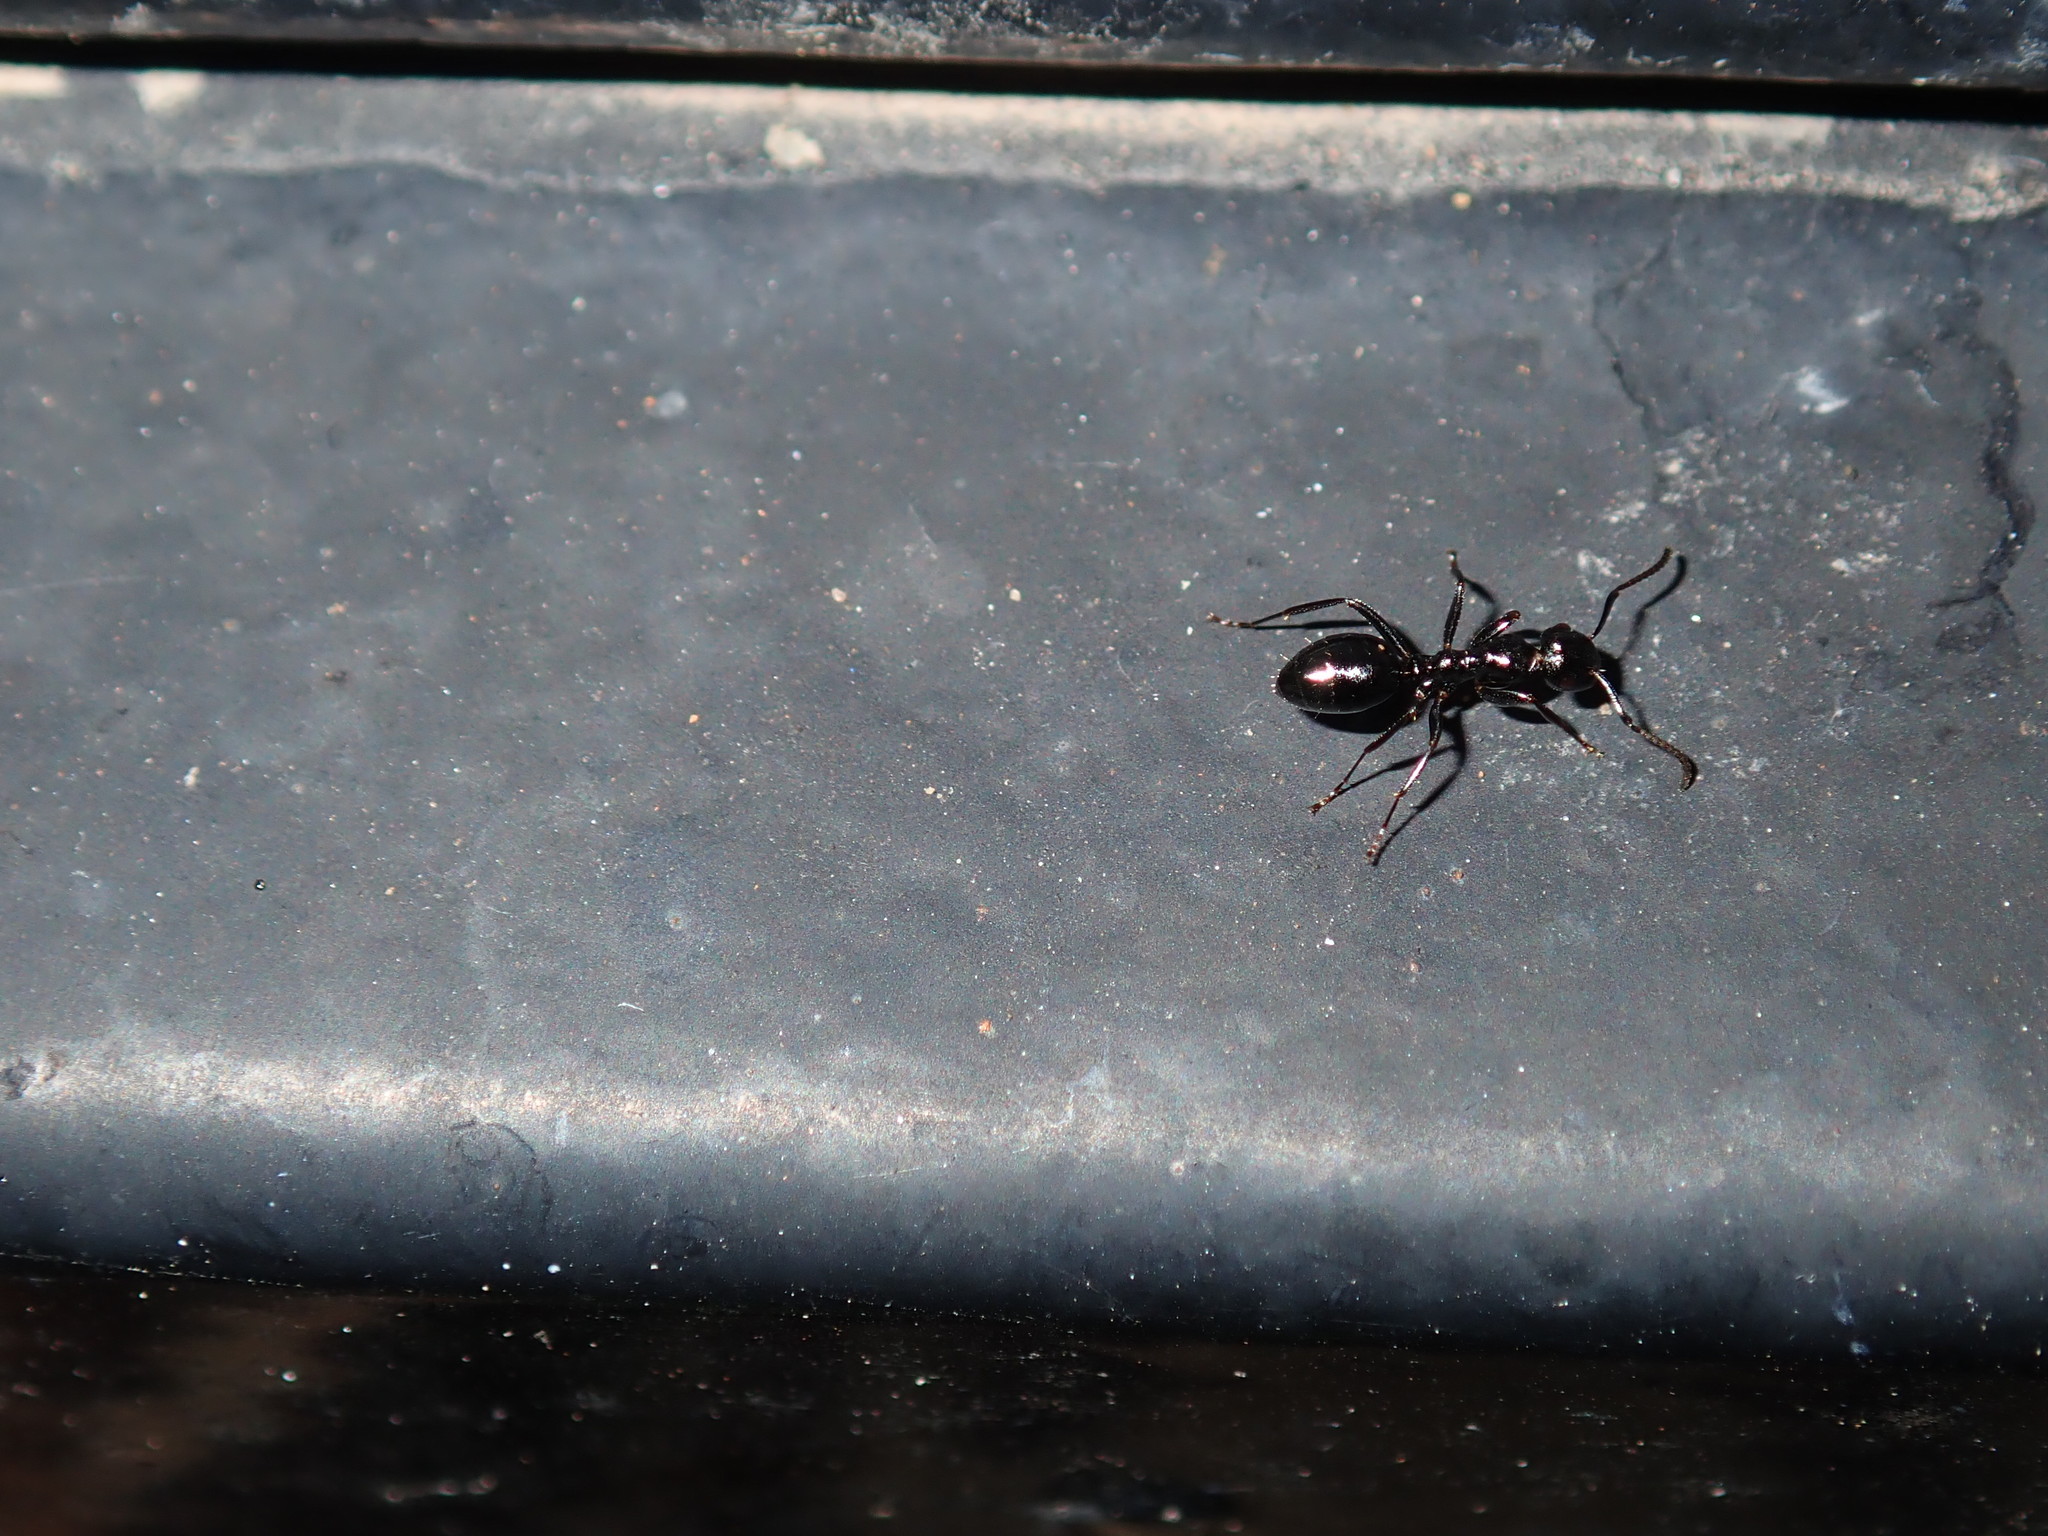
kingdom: Animalia
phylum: Arthropoda
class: Insecta
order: Hymenoptera
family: Formicidae
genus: Colobopsis
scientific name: Colobopsis gasseri
